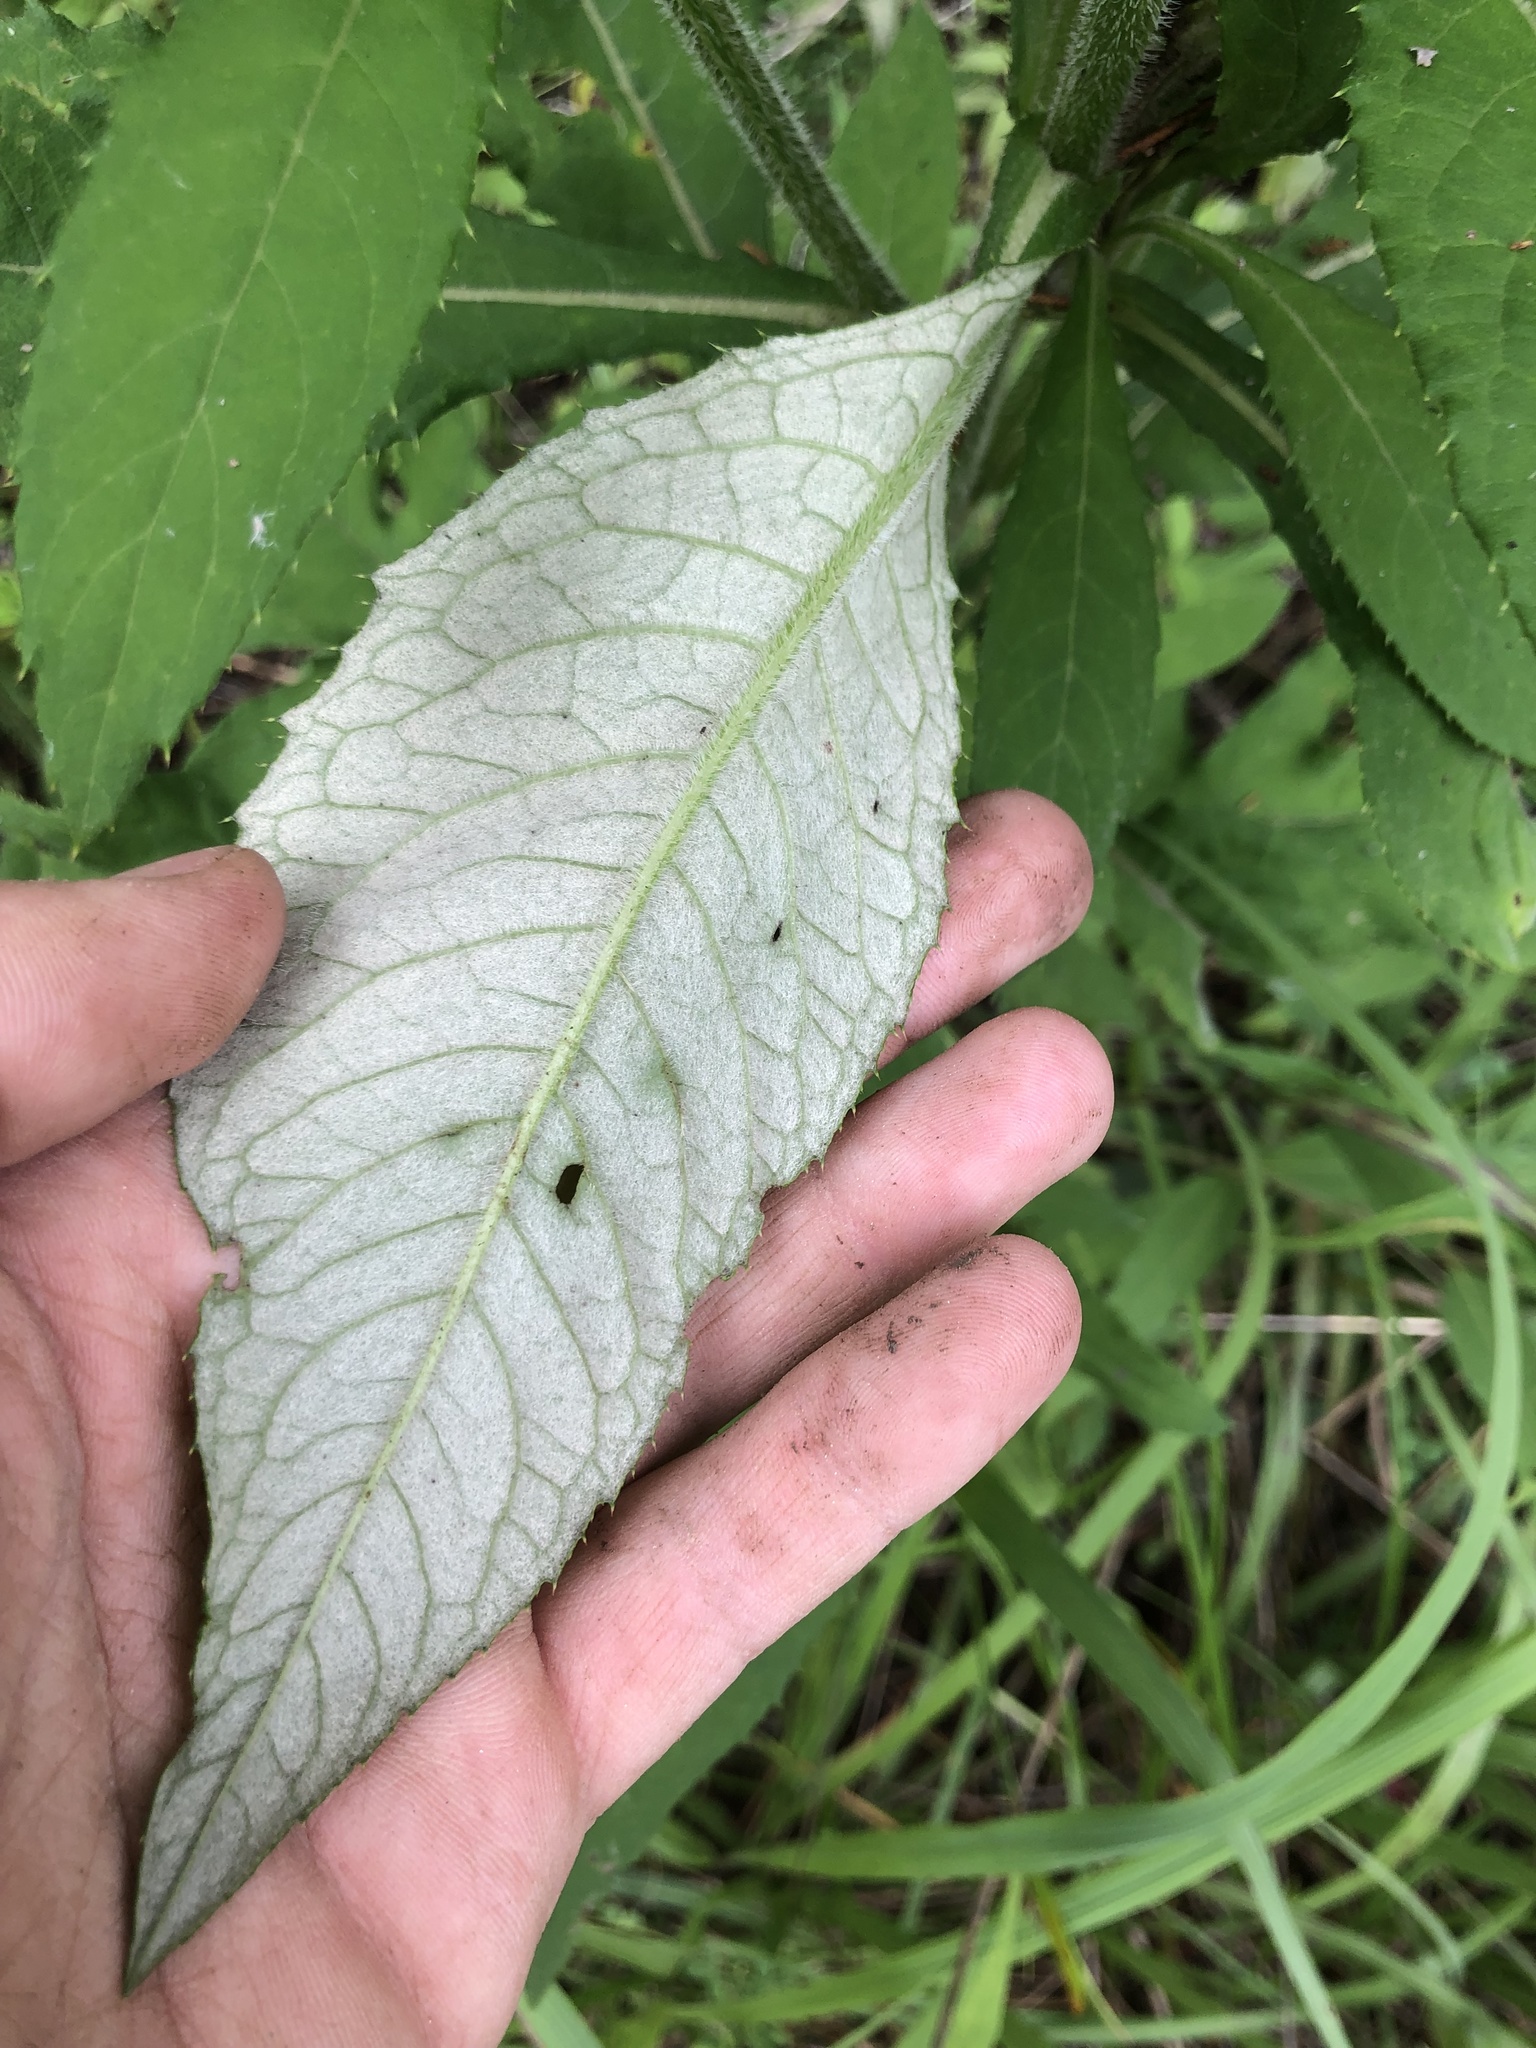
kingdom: Plantae
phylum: Tracheophyta
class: Magnoliopsida
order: Asterales
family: Asteraceae
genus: Cirsium
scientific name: Cirsium altissimum
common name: Roadside thistle
